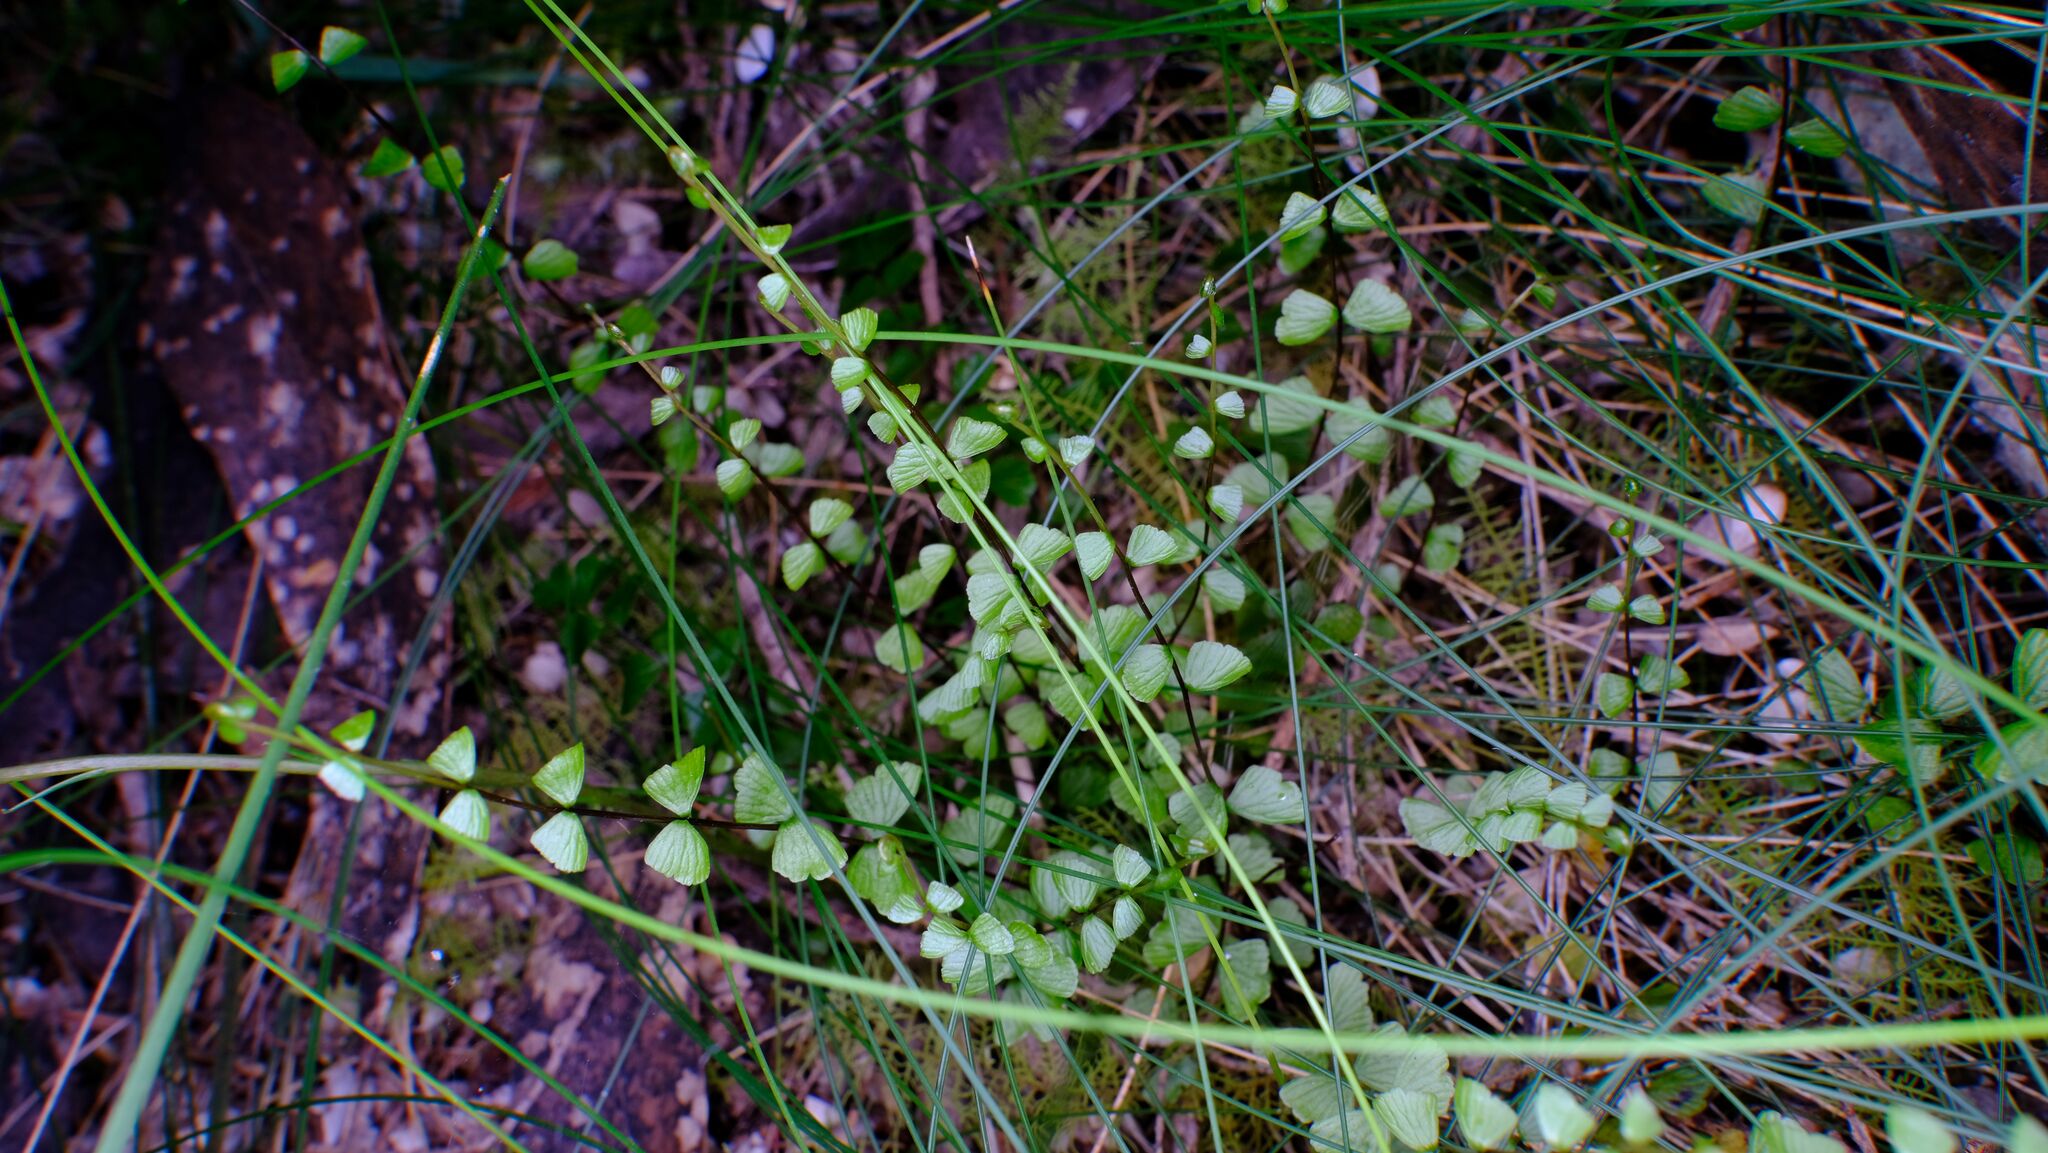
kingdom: Plantae
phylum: Tracheophyta
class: Polypodiopsida
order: Polypodiales
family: Lindsaeaceae
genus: Lindsaea
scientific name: Lindsaea linearis
